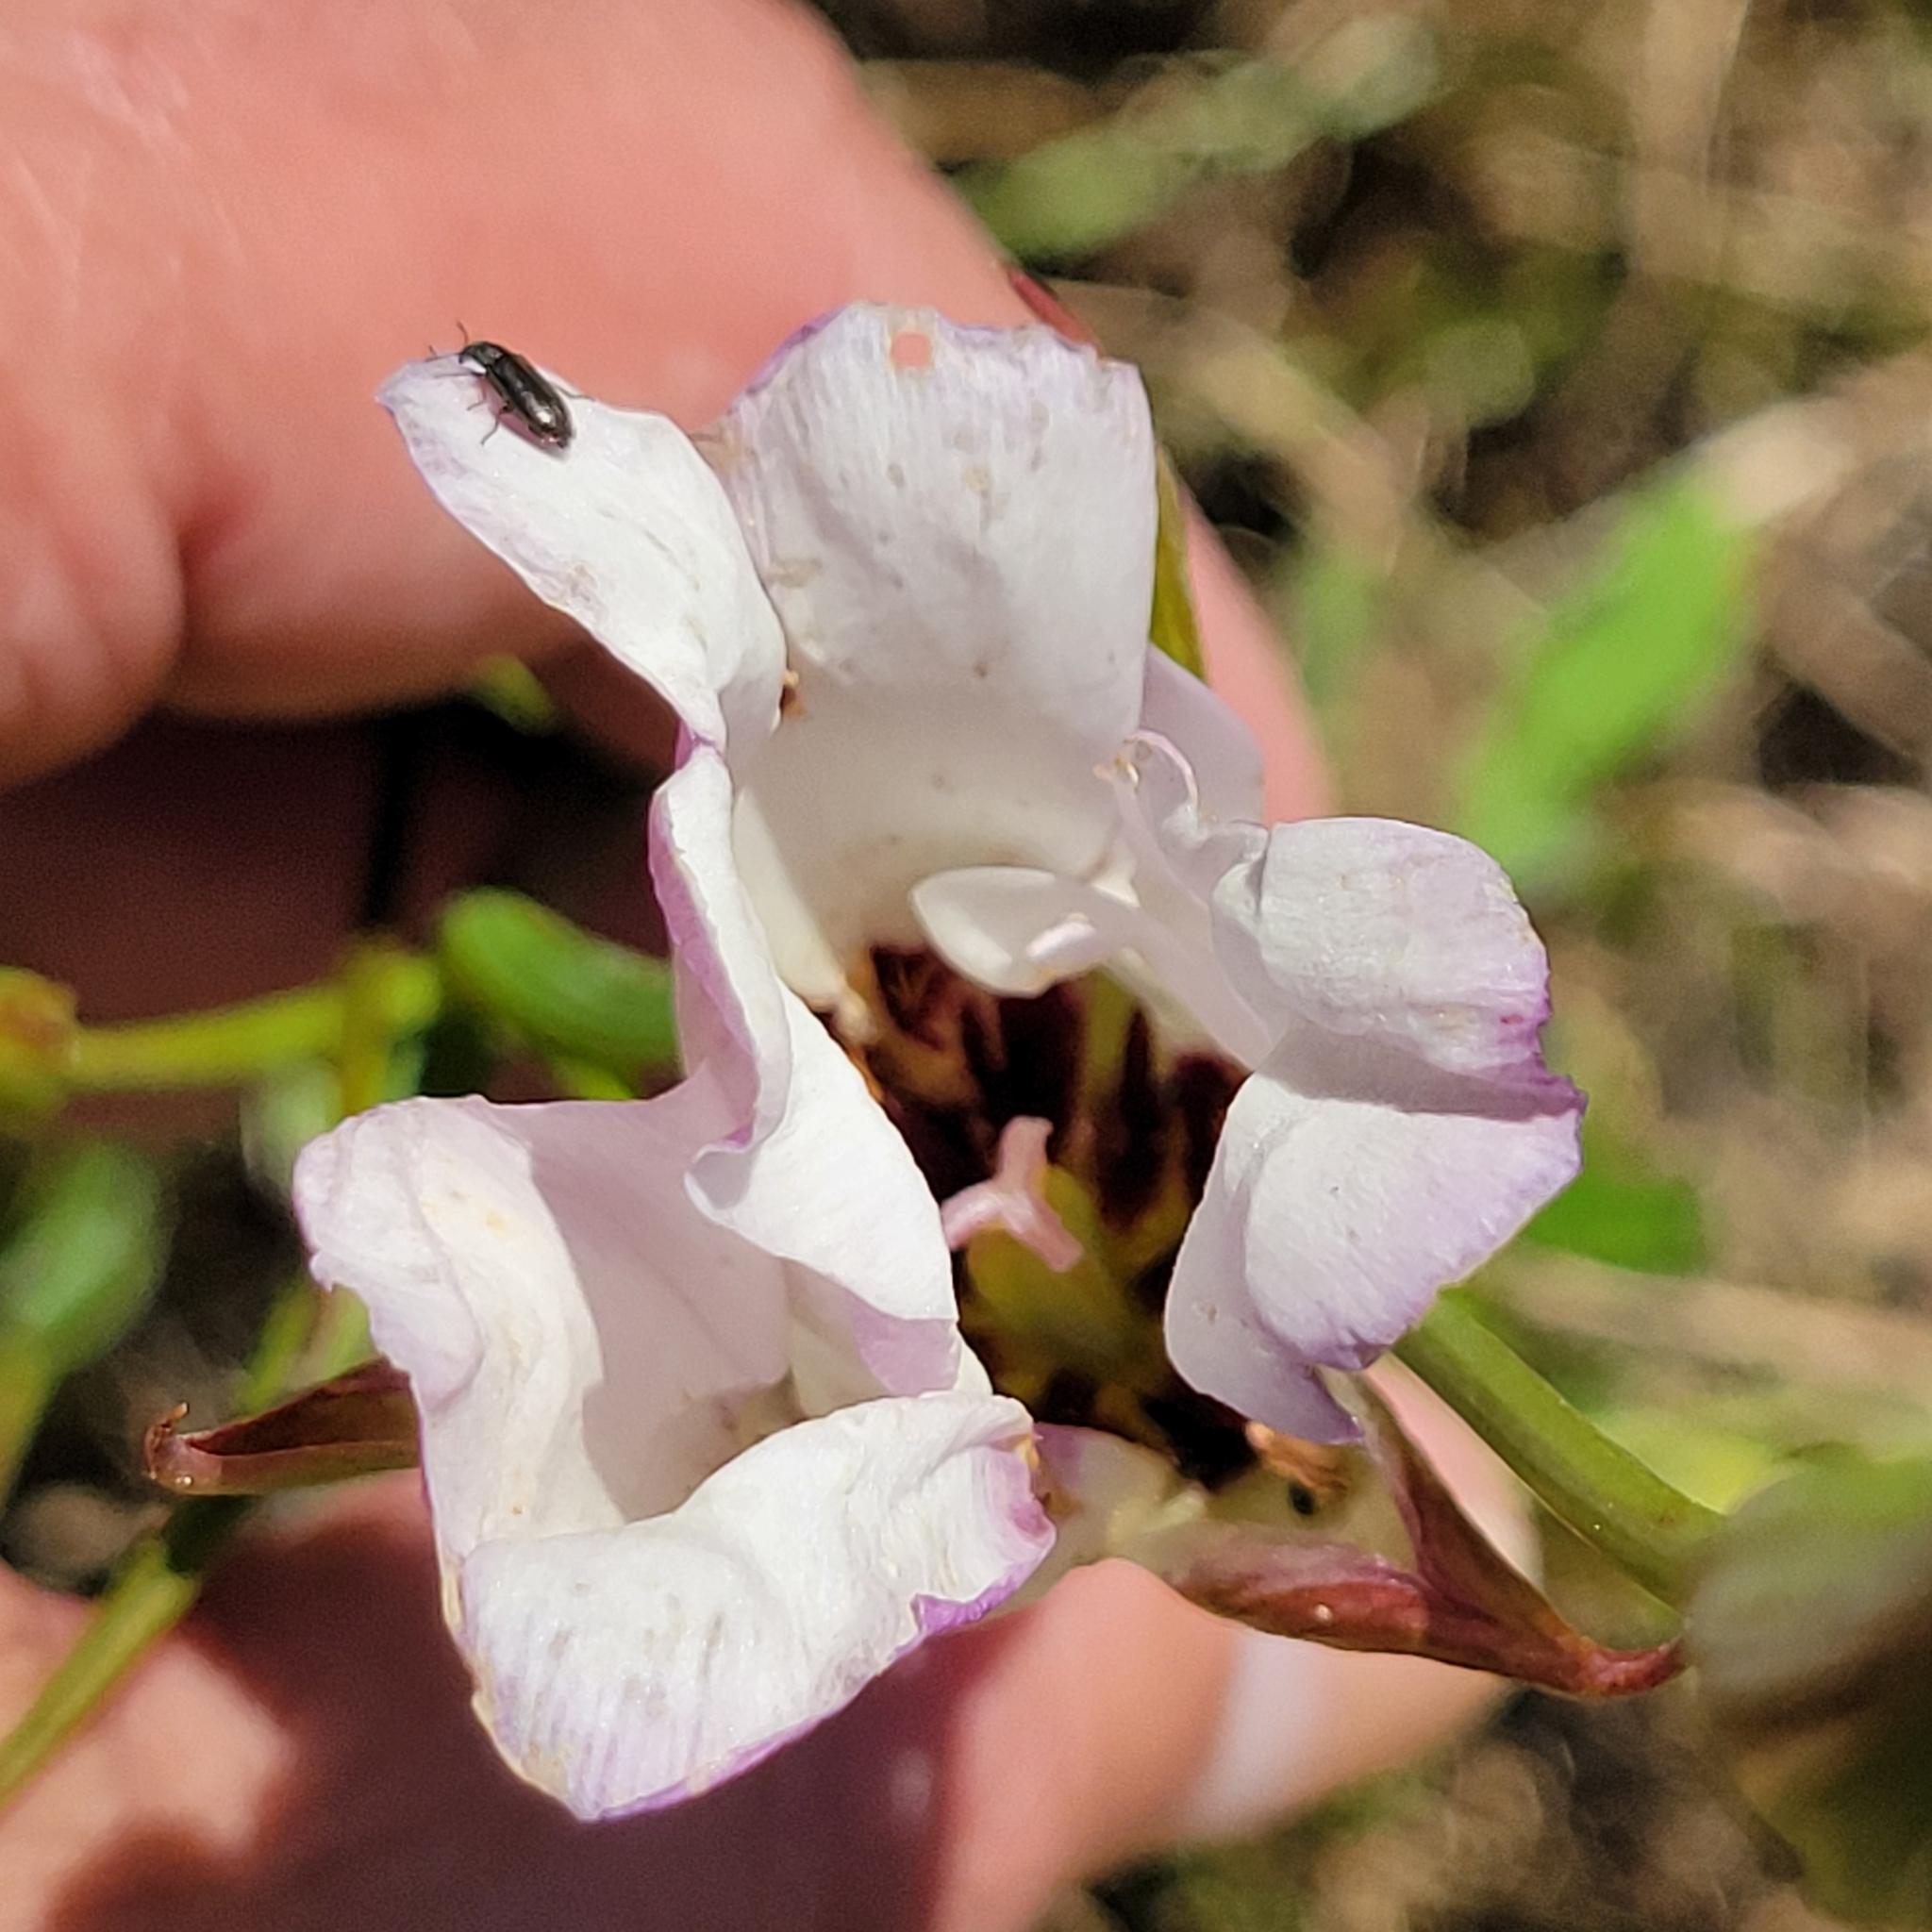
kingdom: Plantae
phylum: Tracheophyta
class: Liliopsida
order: Liliales
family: Liliaceae
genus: Calochortus
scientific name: Calochortus catalinae
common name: Catalina mariposa-lily
